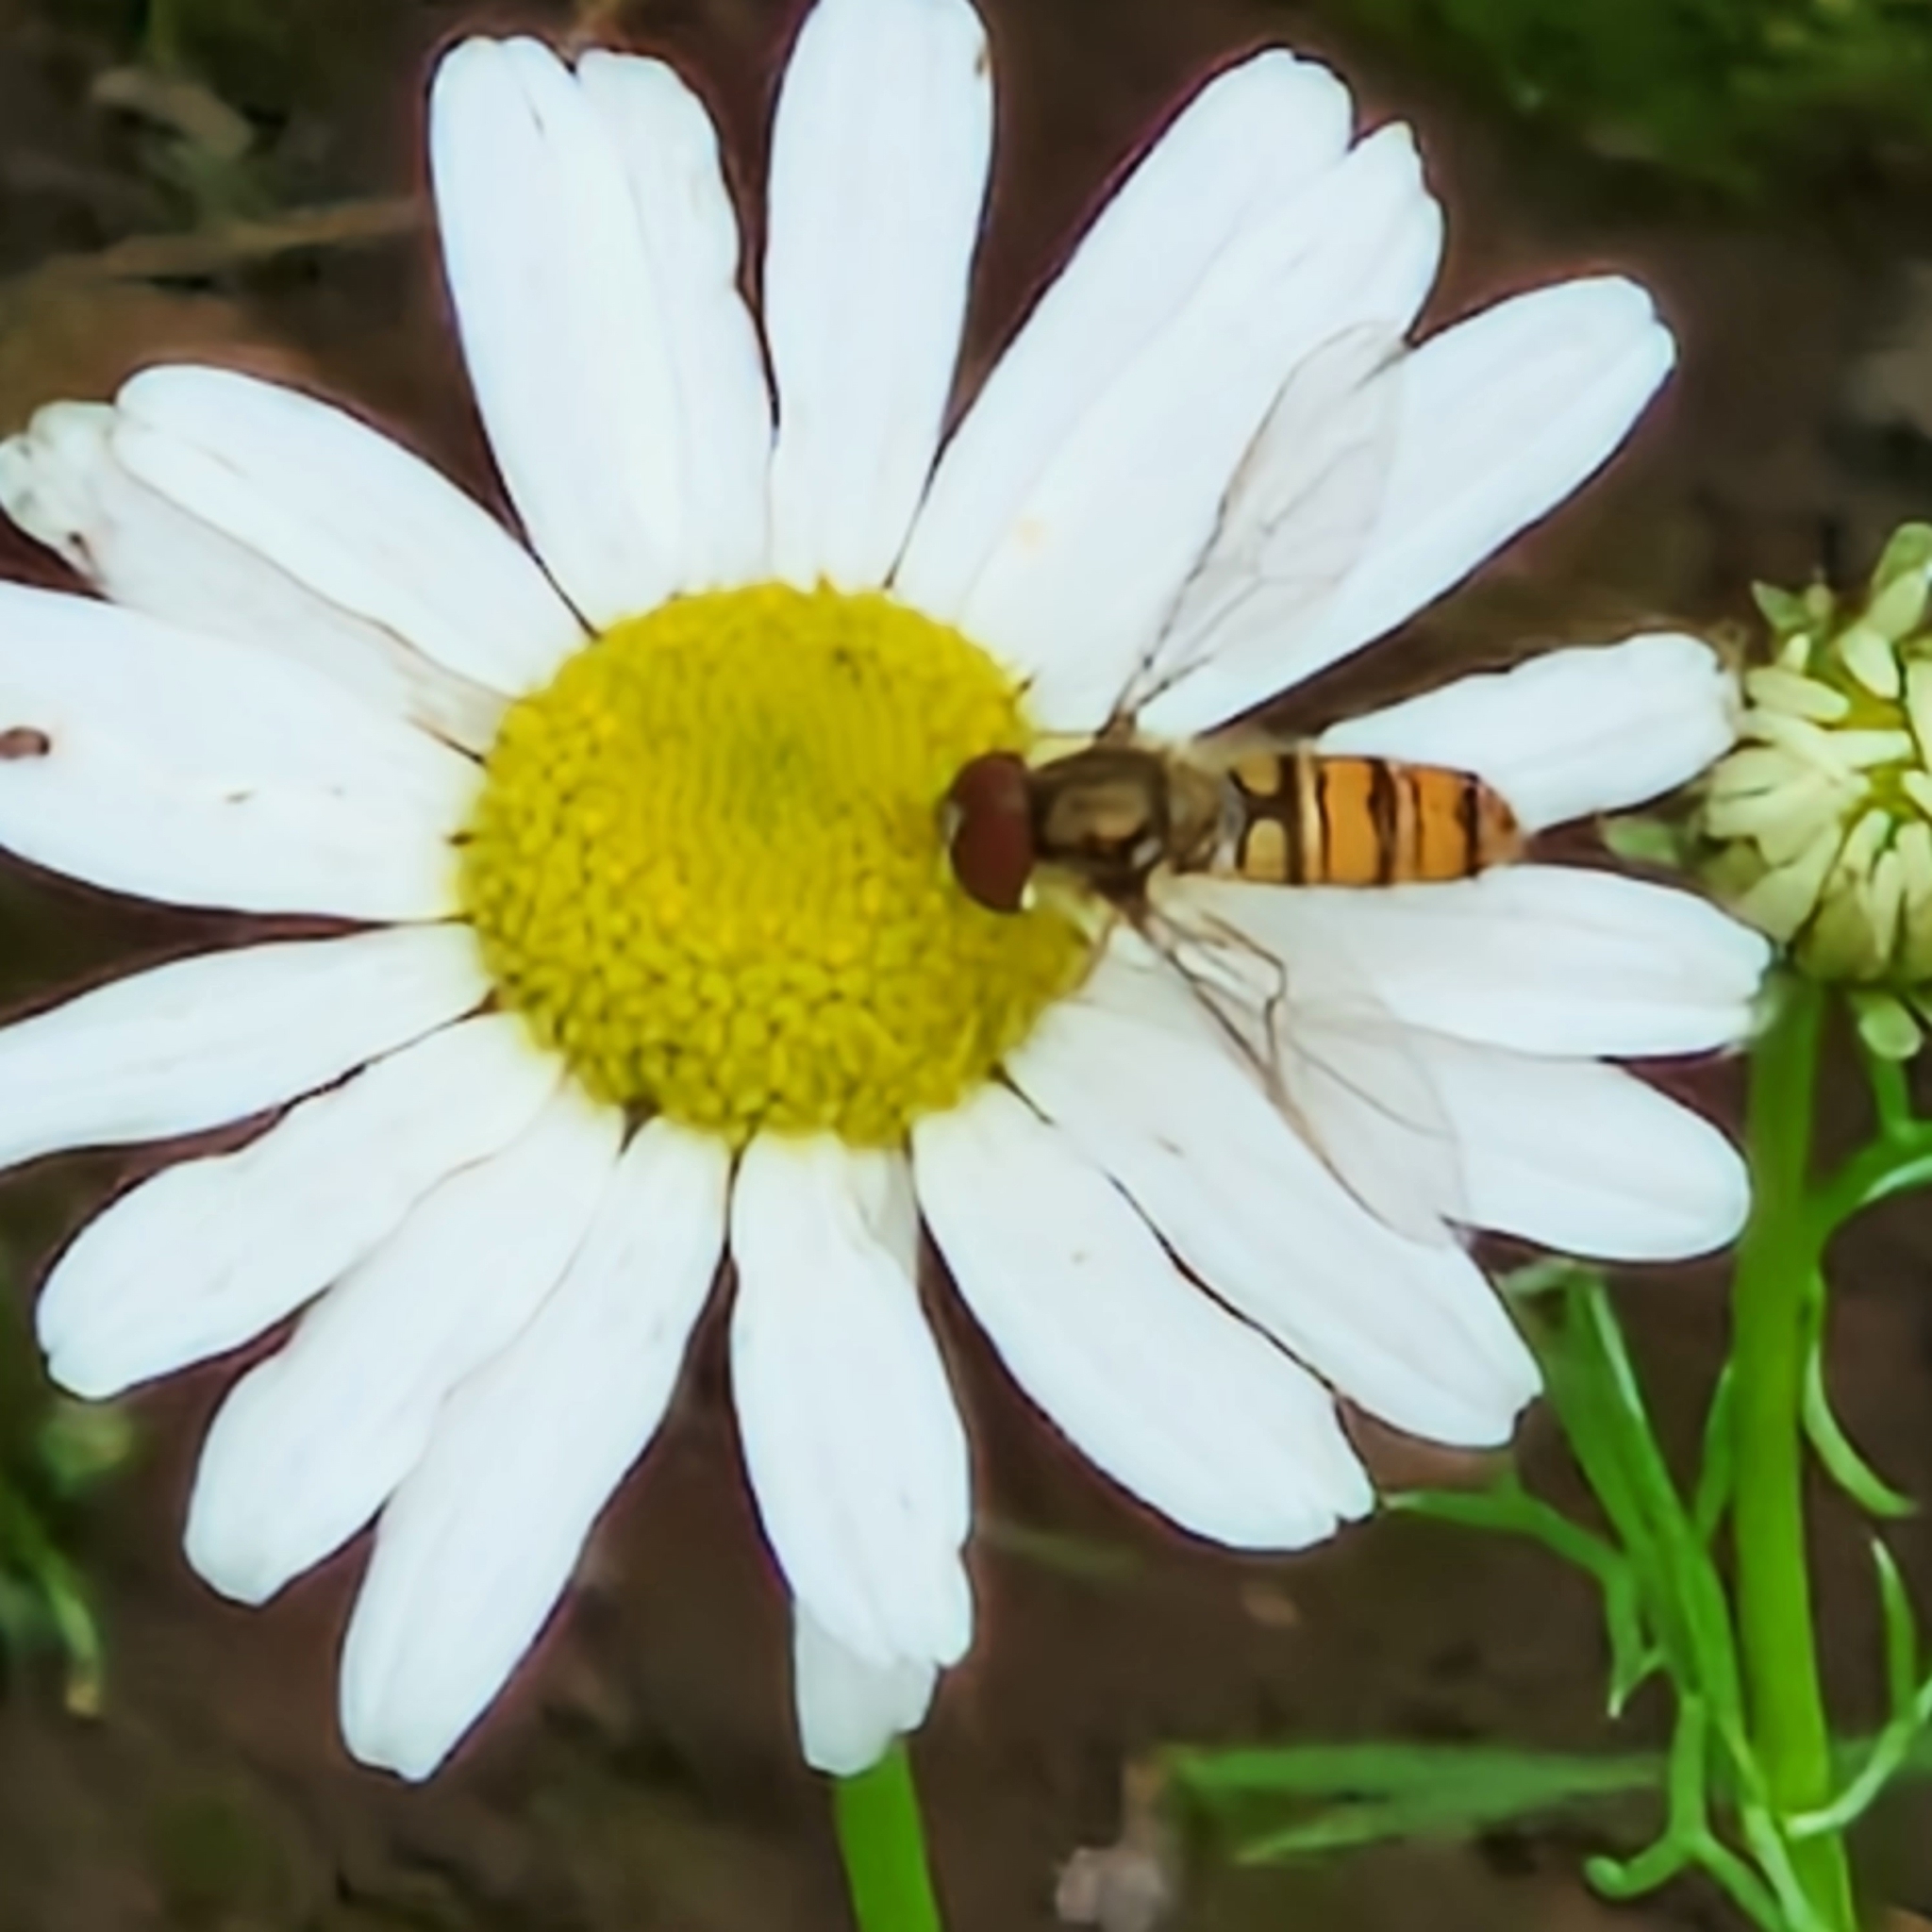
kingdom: Animalia
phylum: Arthropoda
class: Insecta
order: Diptera
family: Syrphidae
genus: Episyrphus
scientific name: Episyrphus balteatus
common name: Marmalade hoverfly
